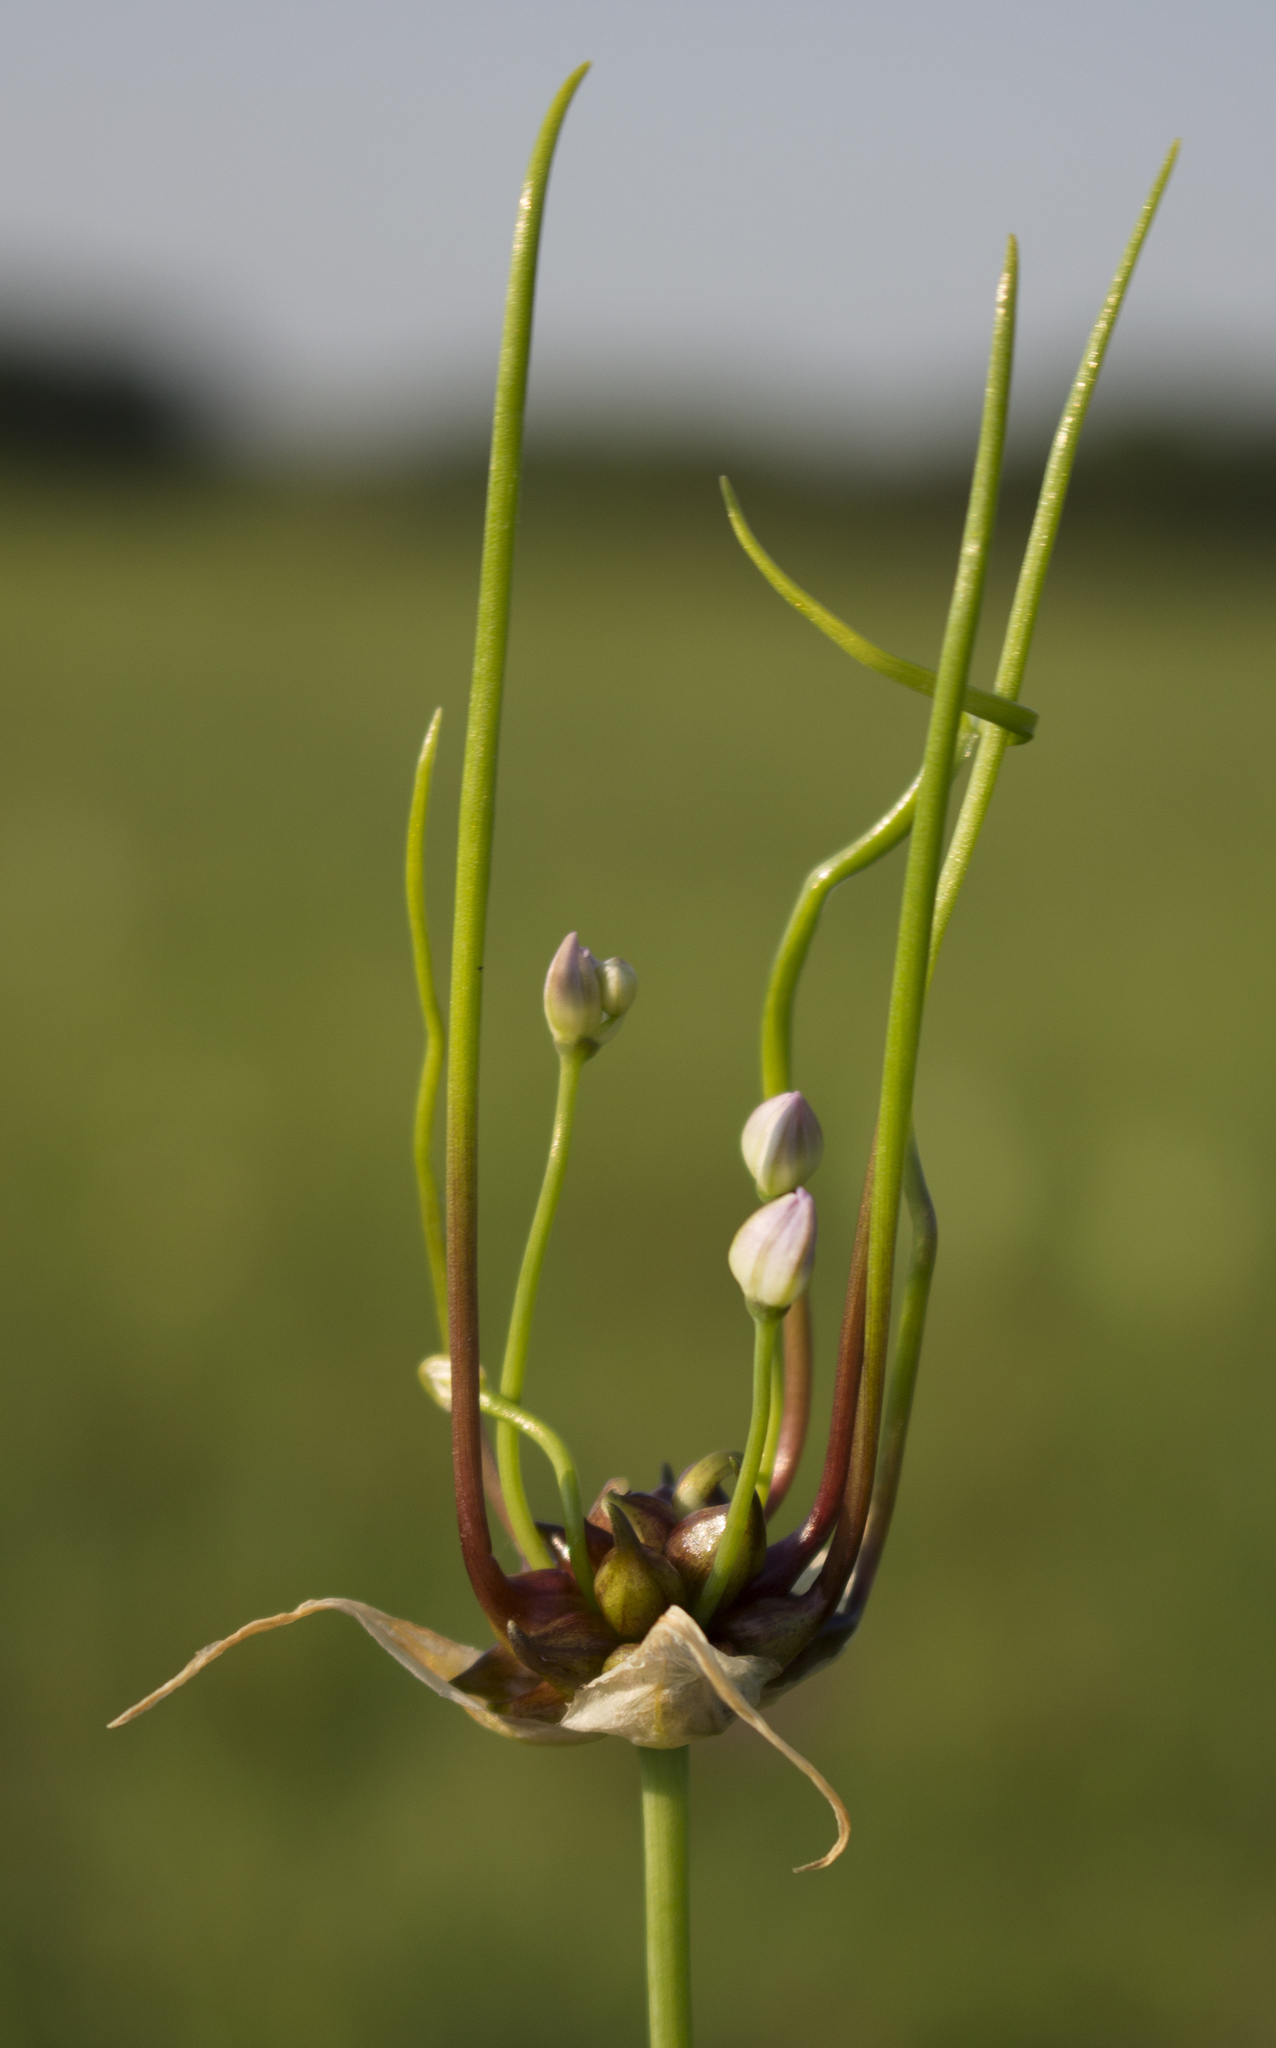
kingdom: Plantae
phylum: Tracheophyta
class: Liliopsida
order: Asparagales
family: Amaryllidaceae
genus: Allium
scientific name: Allium canadense
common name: Meadow garlic
